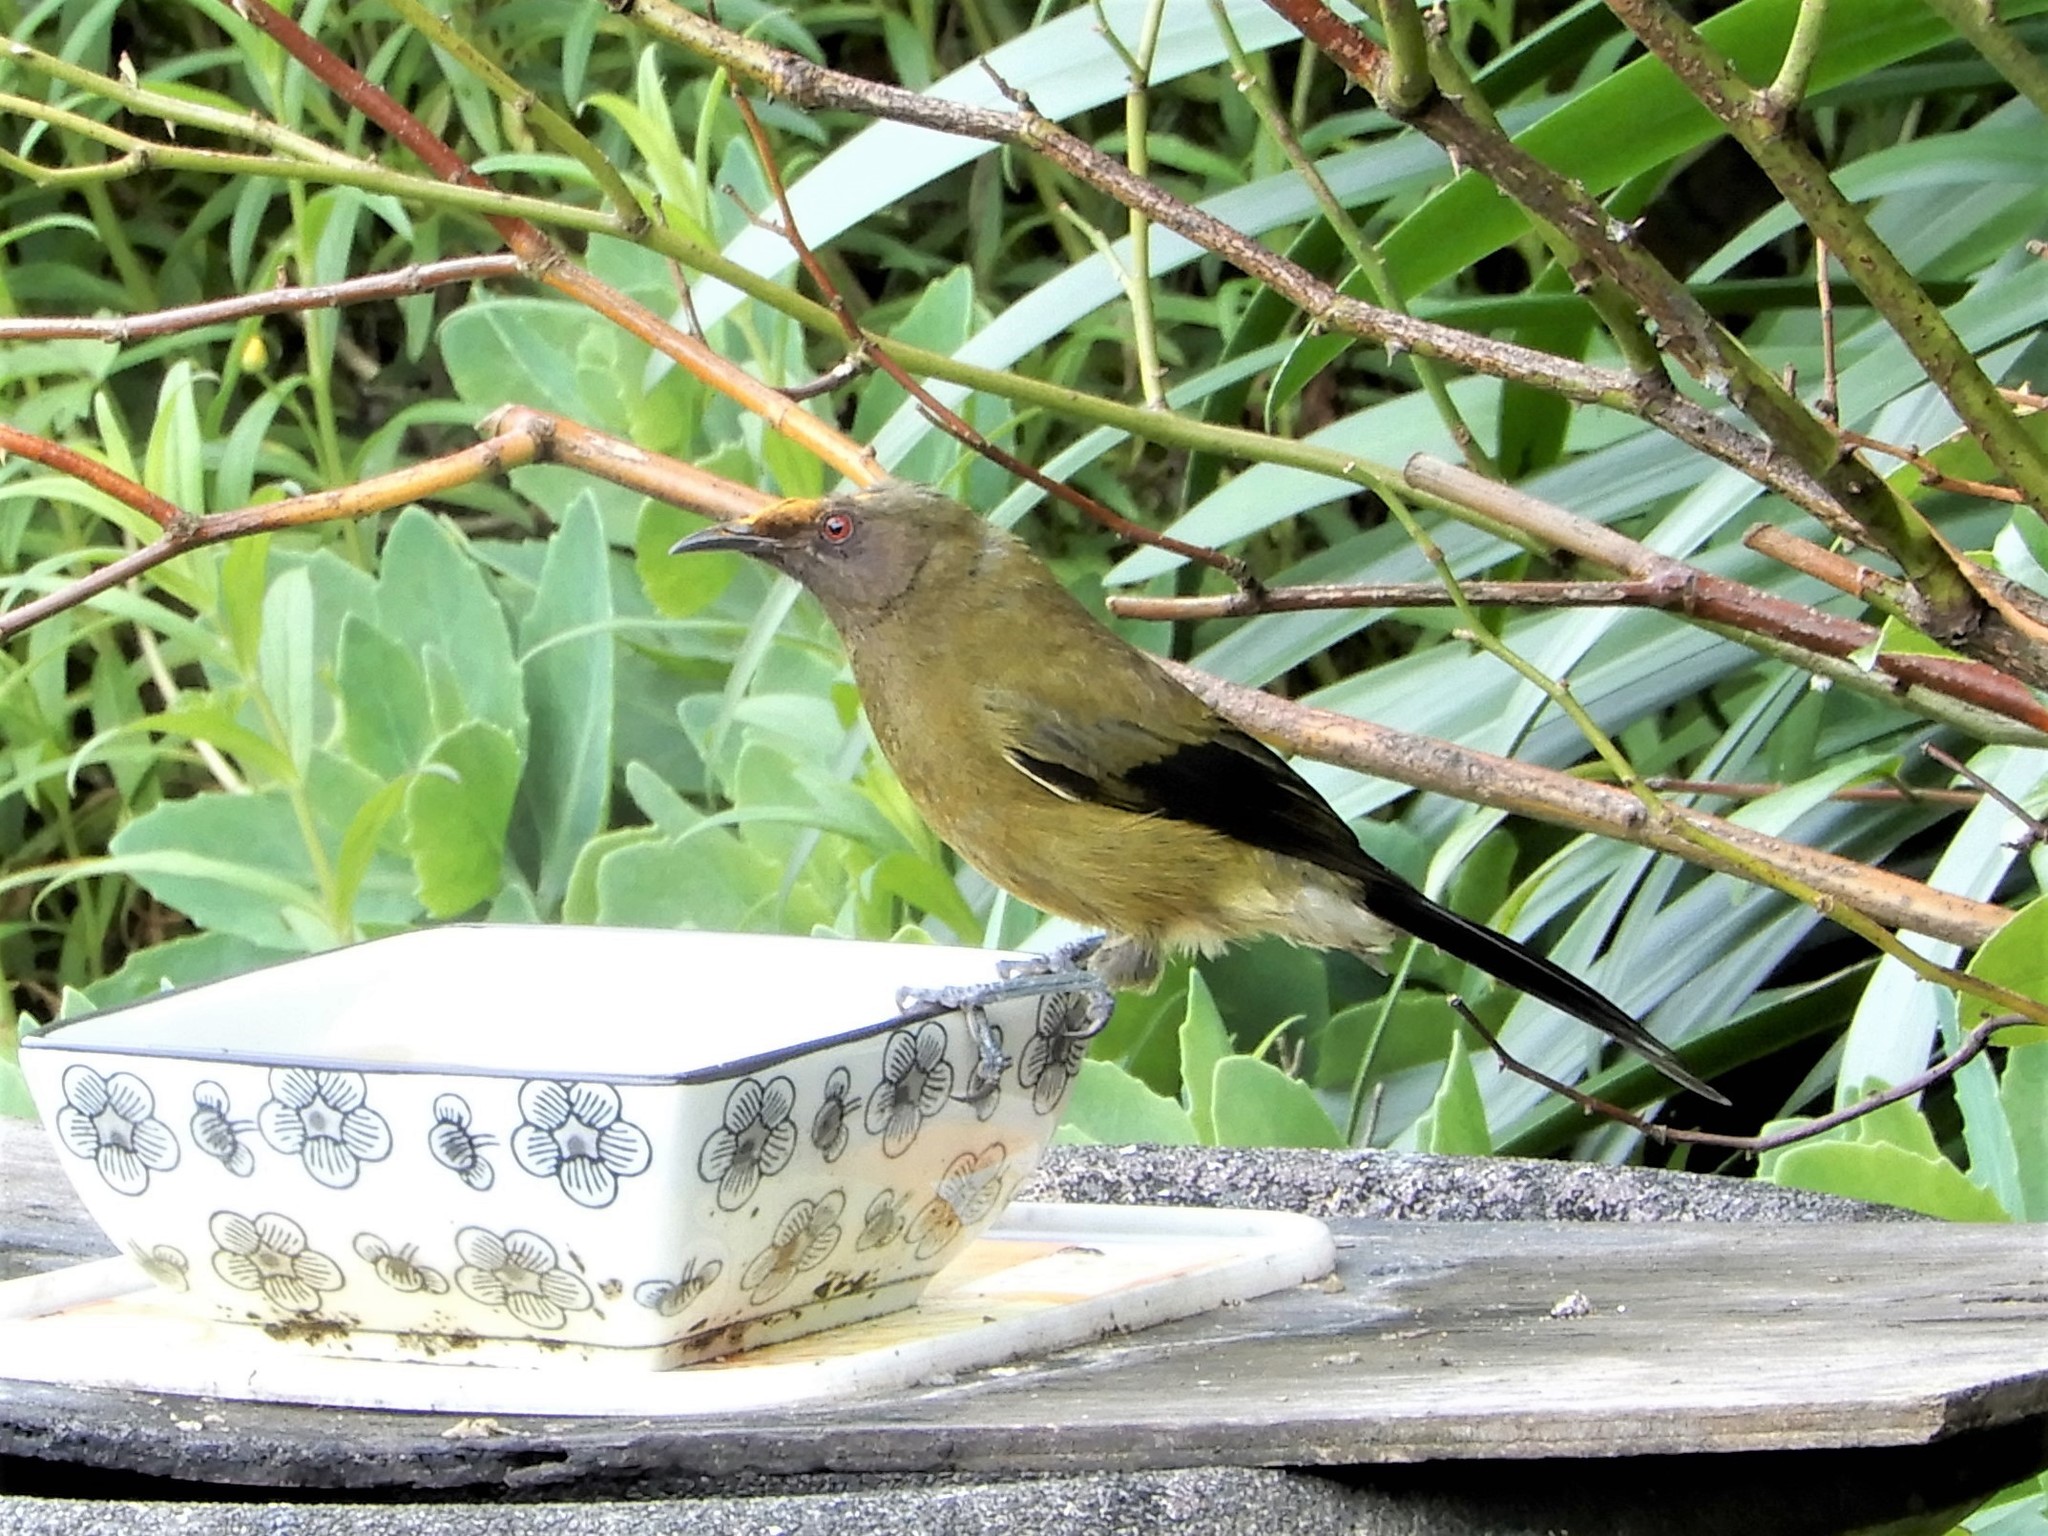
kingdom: Animalia
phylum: Chordata
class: Aves
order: Passeriformes
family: Meliphagidae
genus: Anthornis
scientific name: Anthornis melanura
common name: New zealand bellbird
